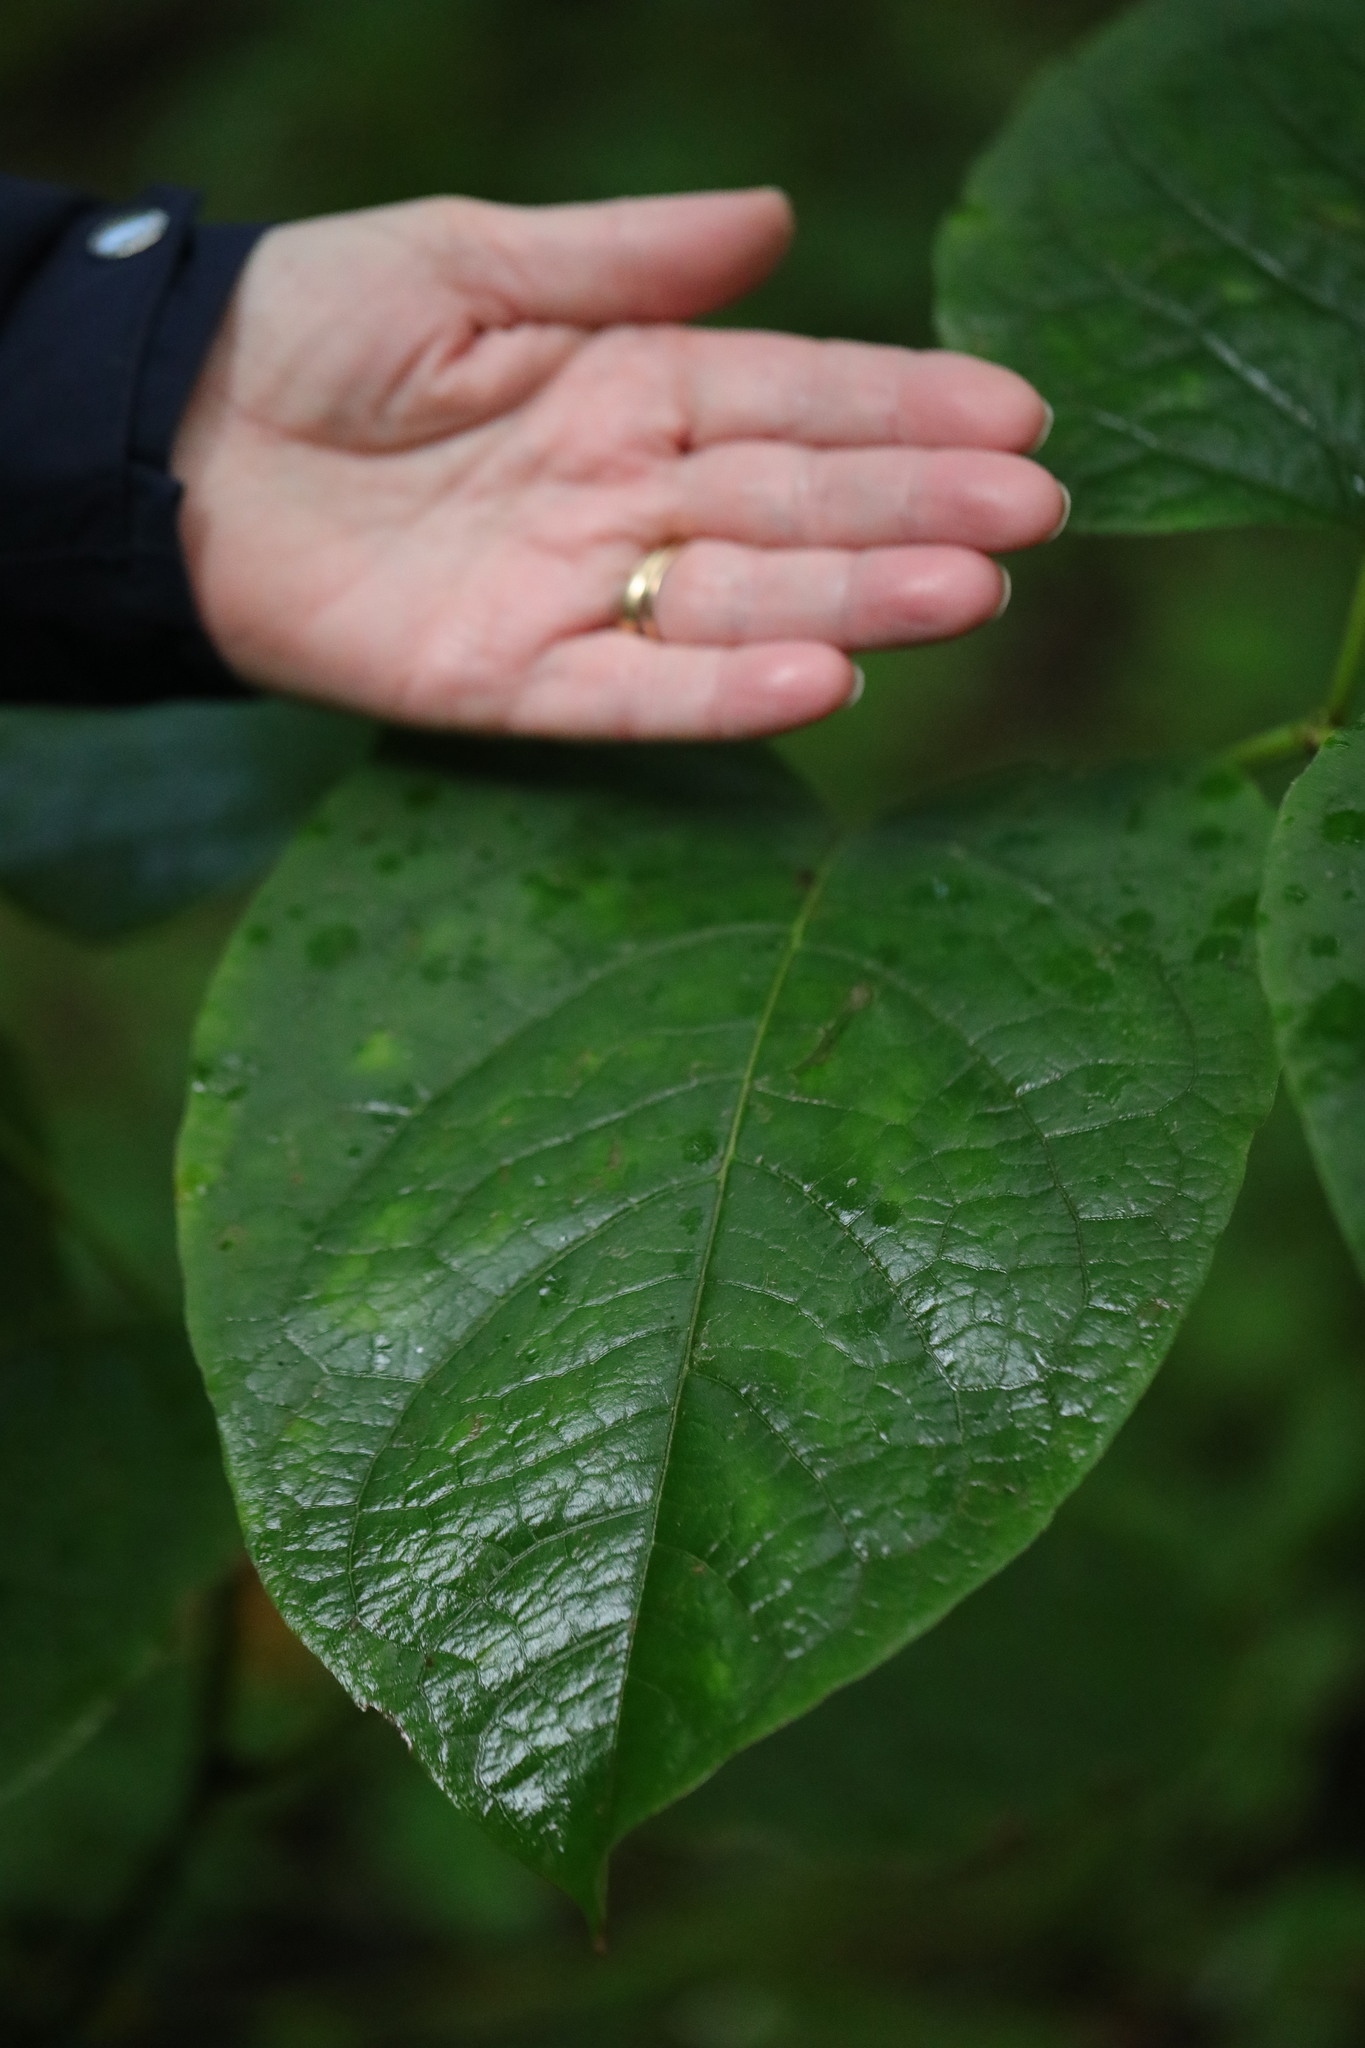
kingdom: Plantae
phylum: Tracheophyta
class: Magnoliopsida
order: Caryophyllales
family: Polygonaceae
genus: Reynoutria
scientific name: Reynoutria sachalinensis
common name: Giant knotweed
